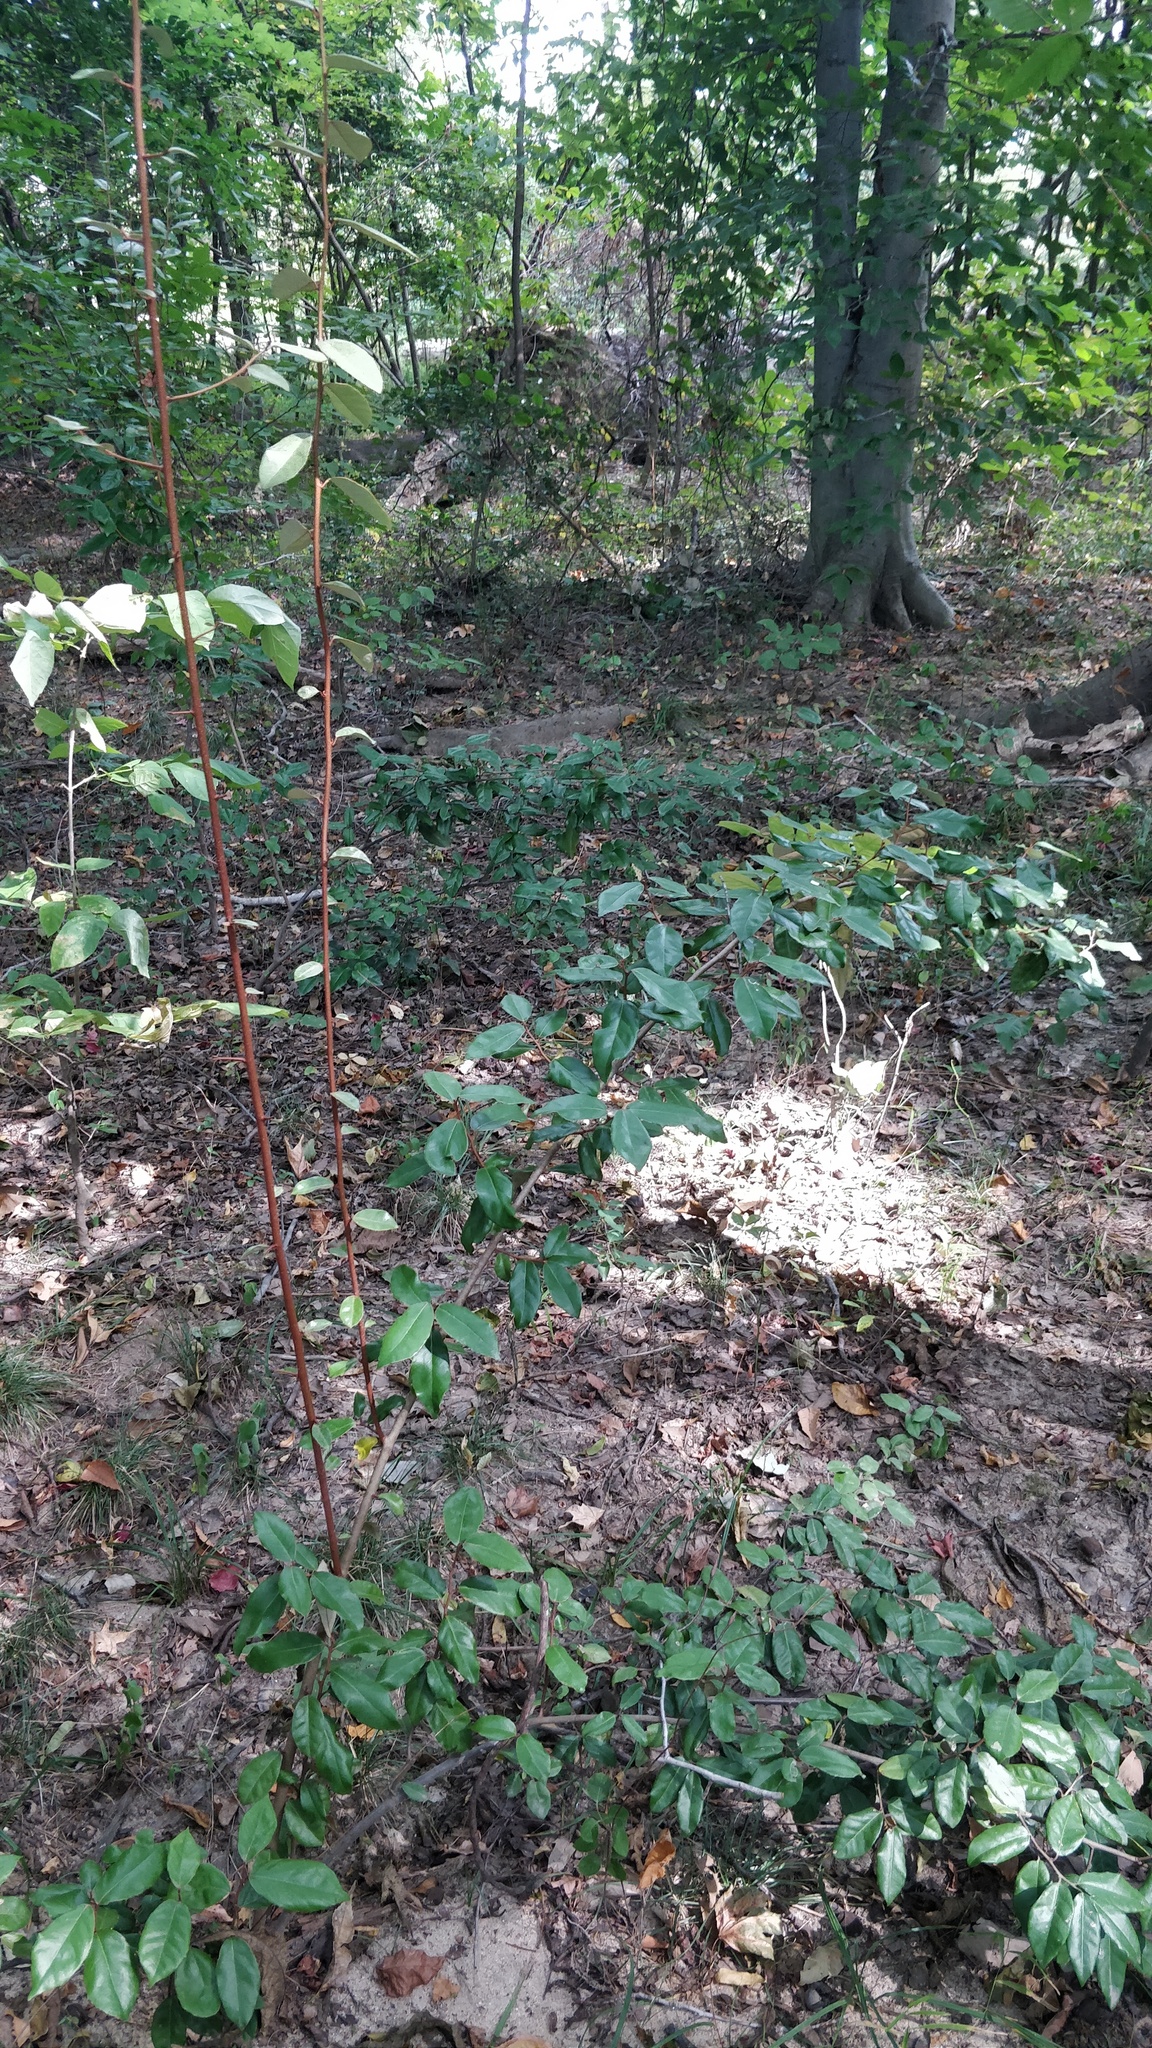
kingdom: Plantae
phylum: Tracheophyta
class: Magnoliopsida
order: Rosales
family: Elaeagnaceae
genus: Elaeagnus
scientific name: Elaeagnus pungens
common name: Spiny oleaster
